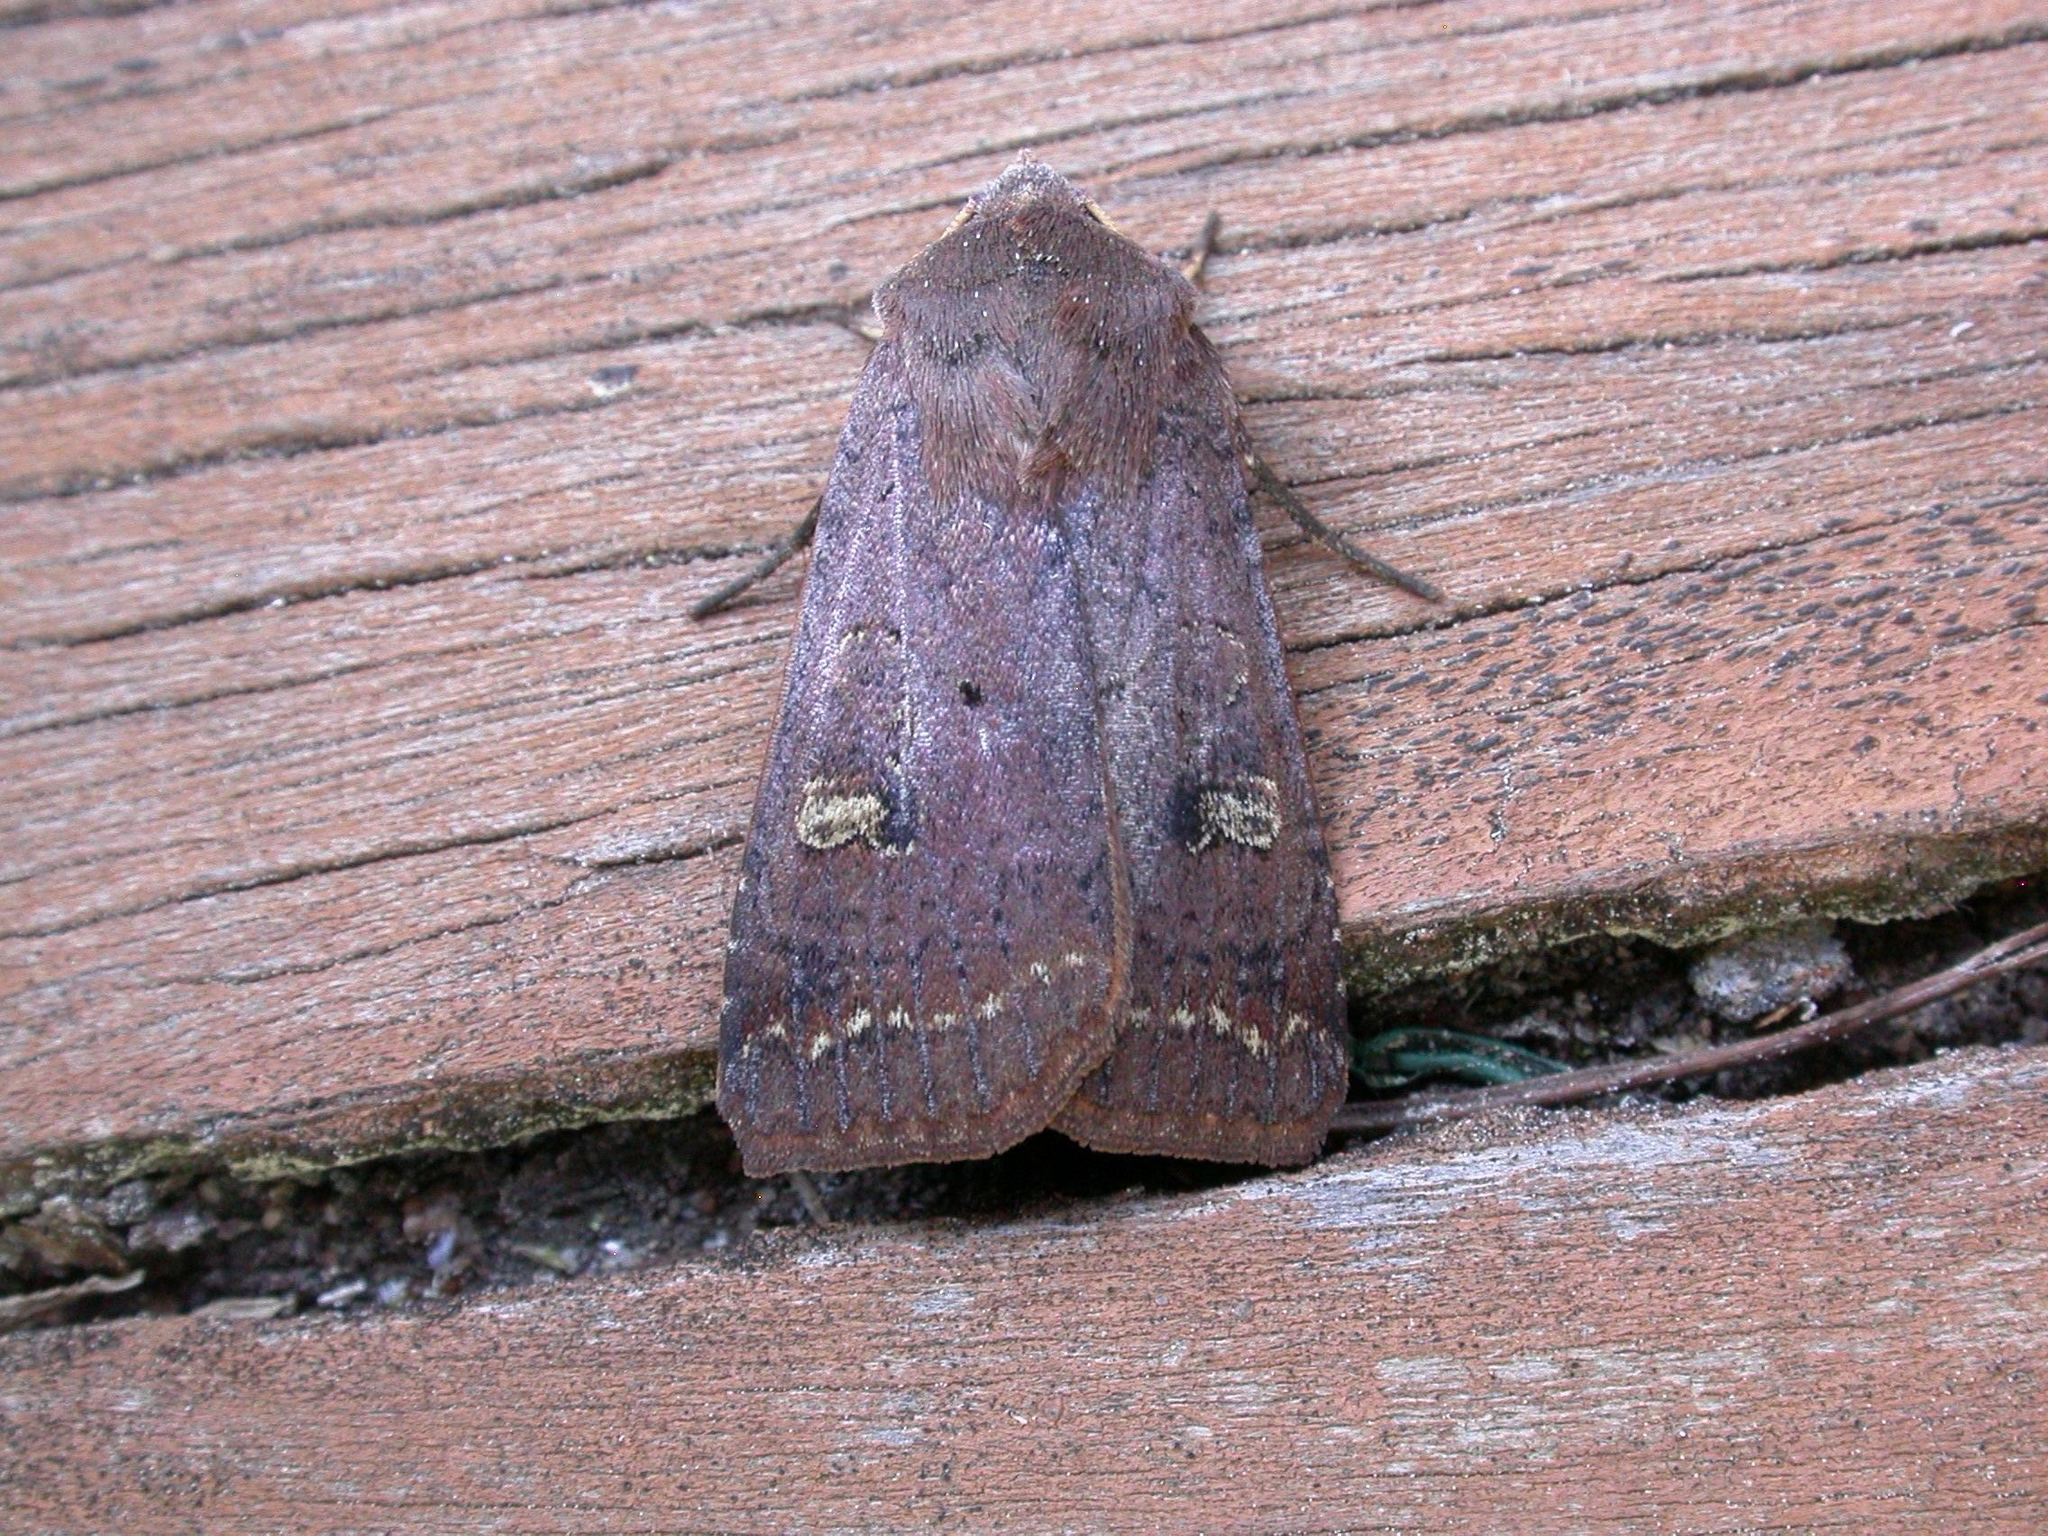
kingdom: Animalia
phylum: Arthropoda
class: Insecta
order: Lepidoptera
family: Noctuidae
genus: Diarsia
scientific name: Diarsia intermixta
